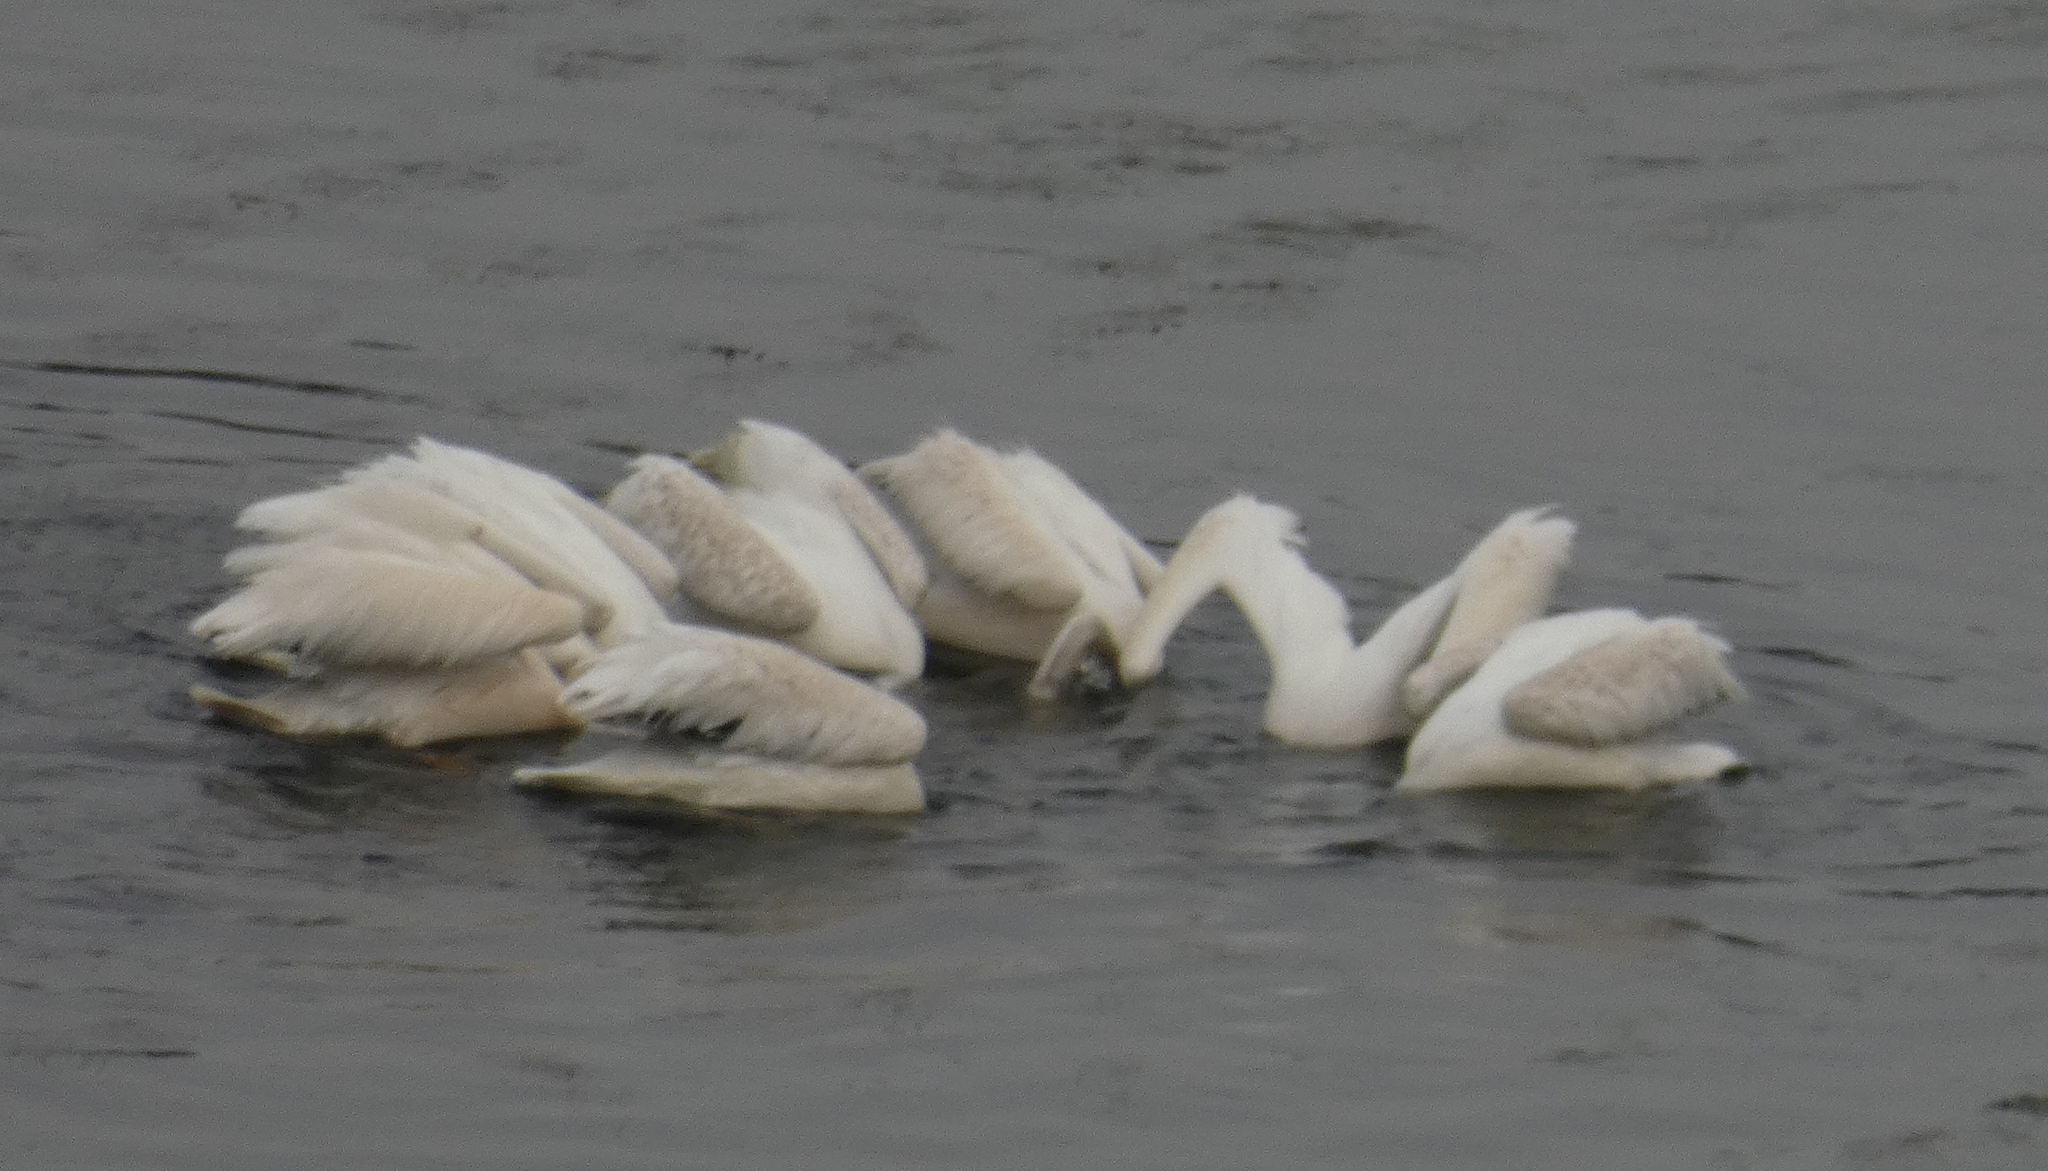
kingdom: Animalia
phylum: Chordata
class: Aves
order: Pelecaniformes
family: Pelecanidae
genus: Pelecanus
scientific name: Pelecanus erythrorhynchos
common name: American white pelican
